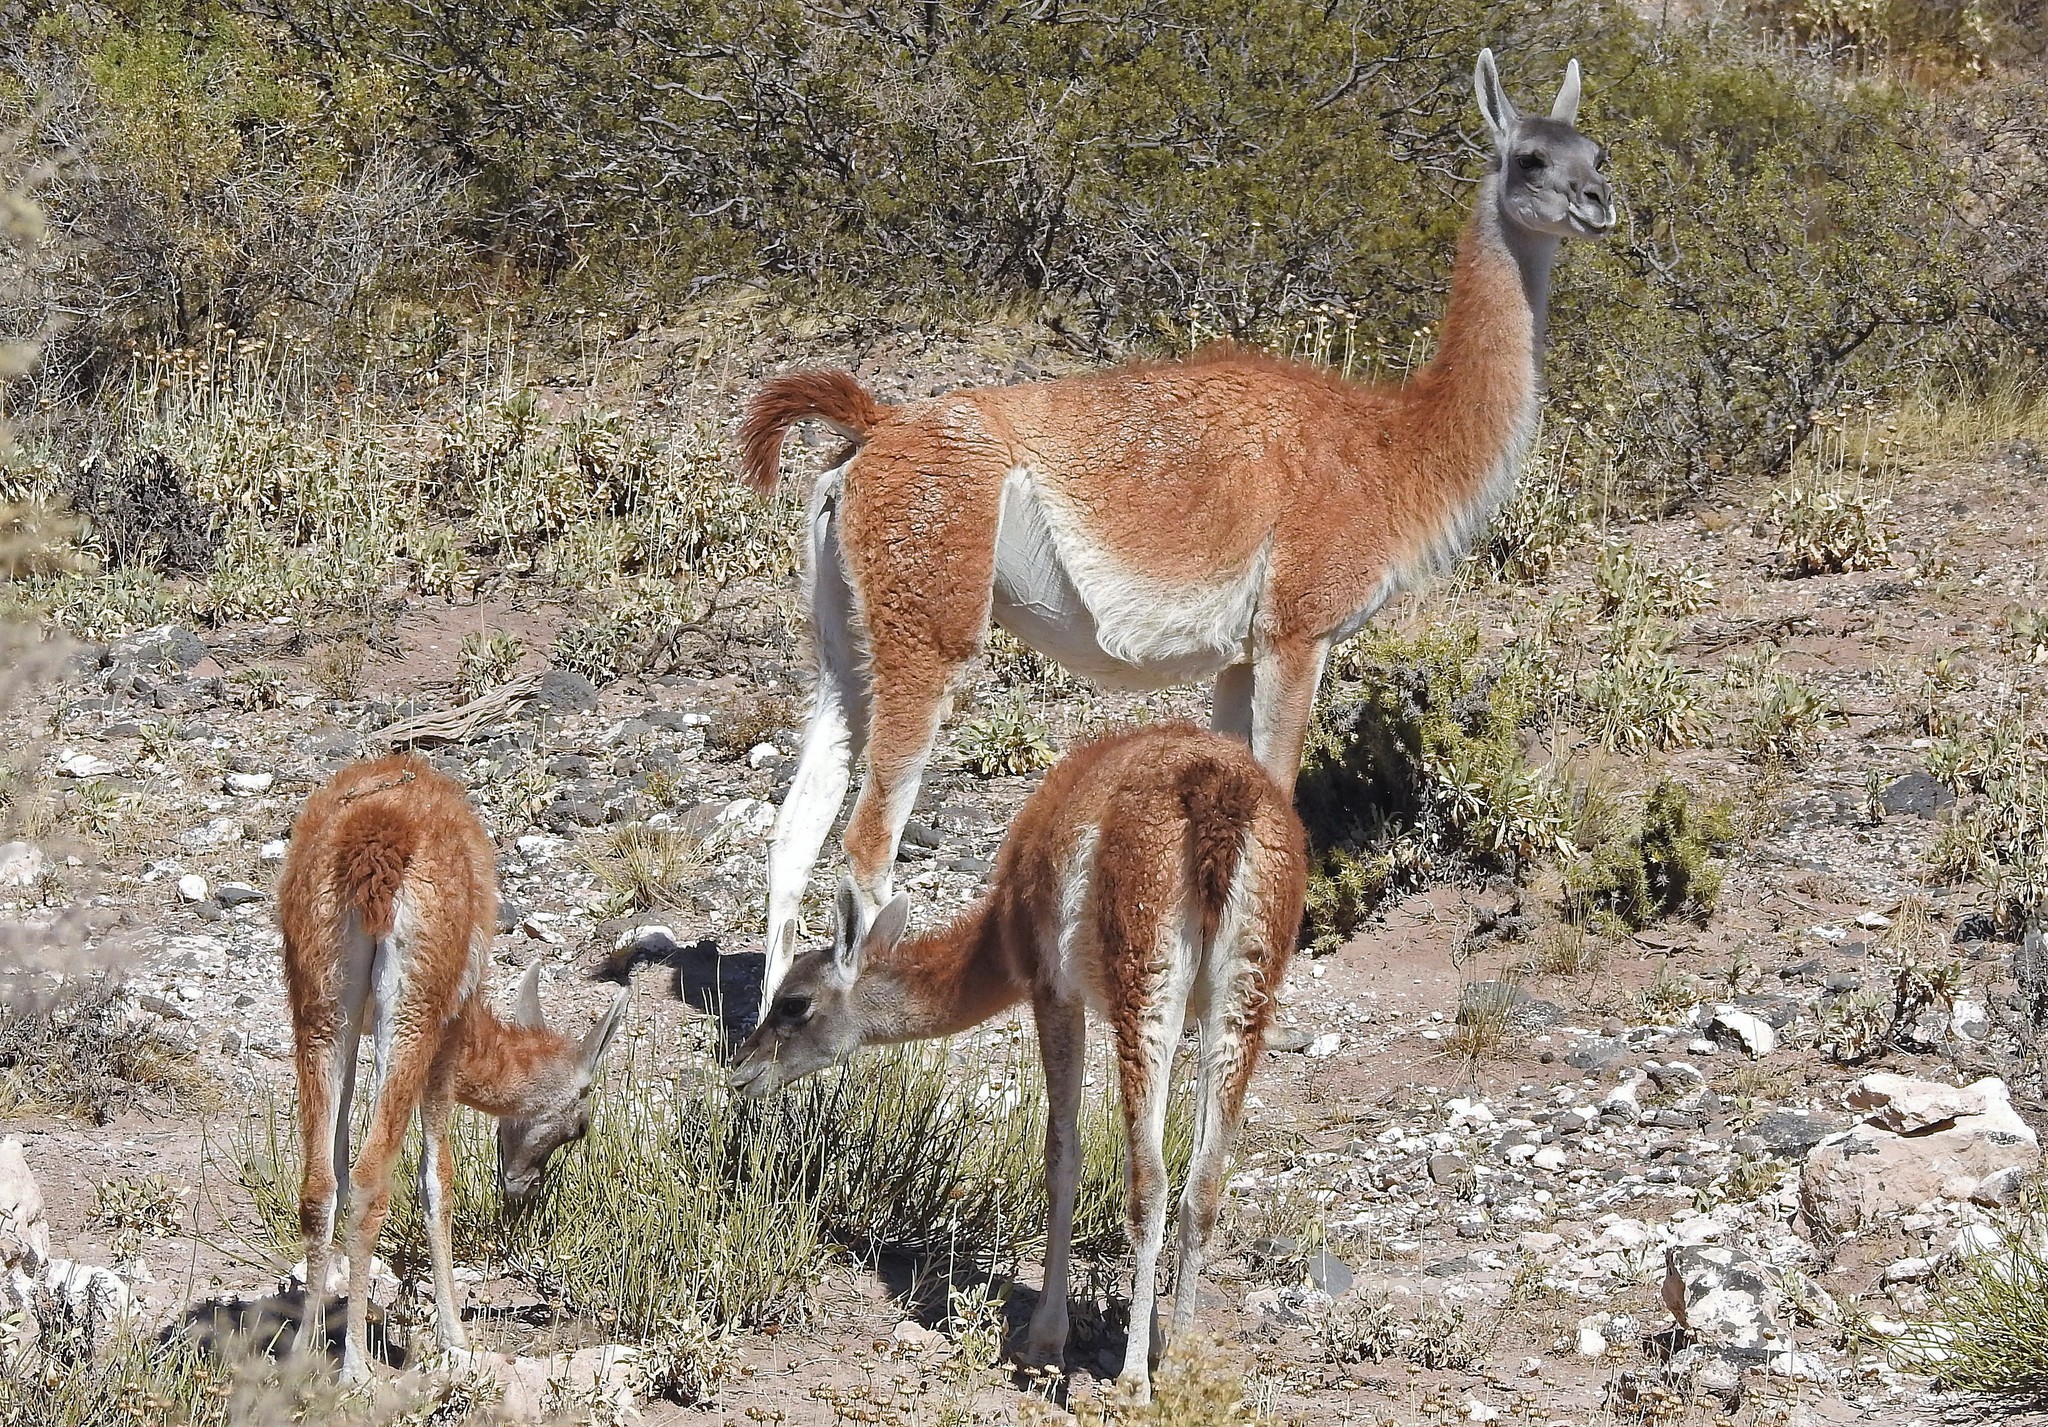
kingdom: Animalia
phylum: Chordata
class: Mammalia
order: Artiodactyla
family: Camelidae
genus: Lama
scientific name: Lama glama
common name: Llama
